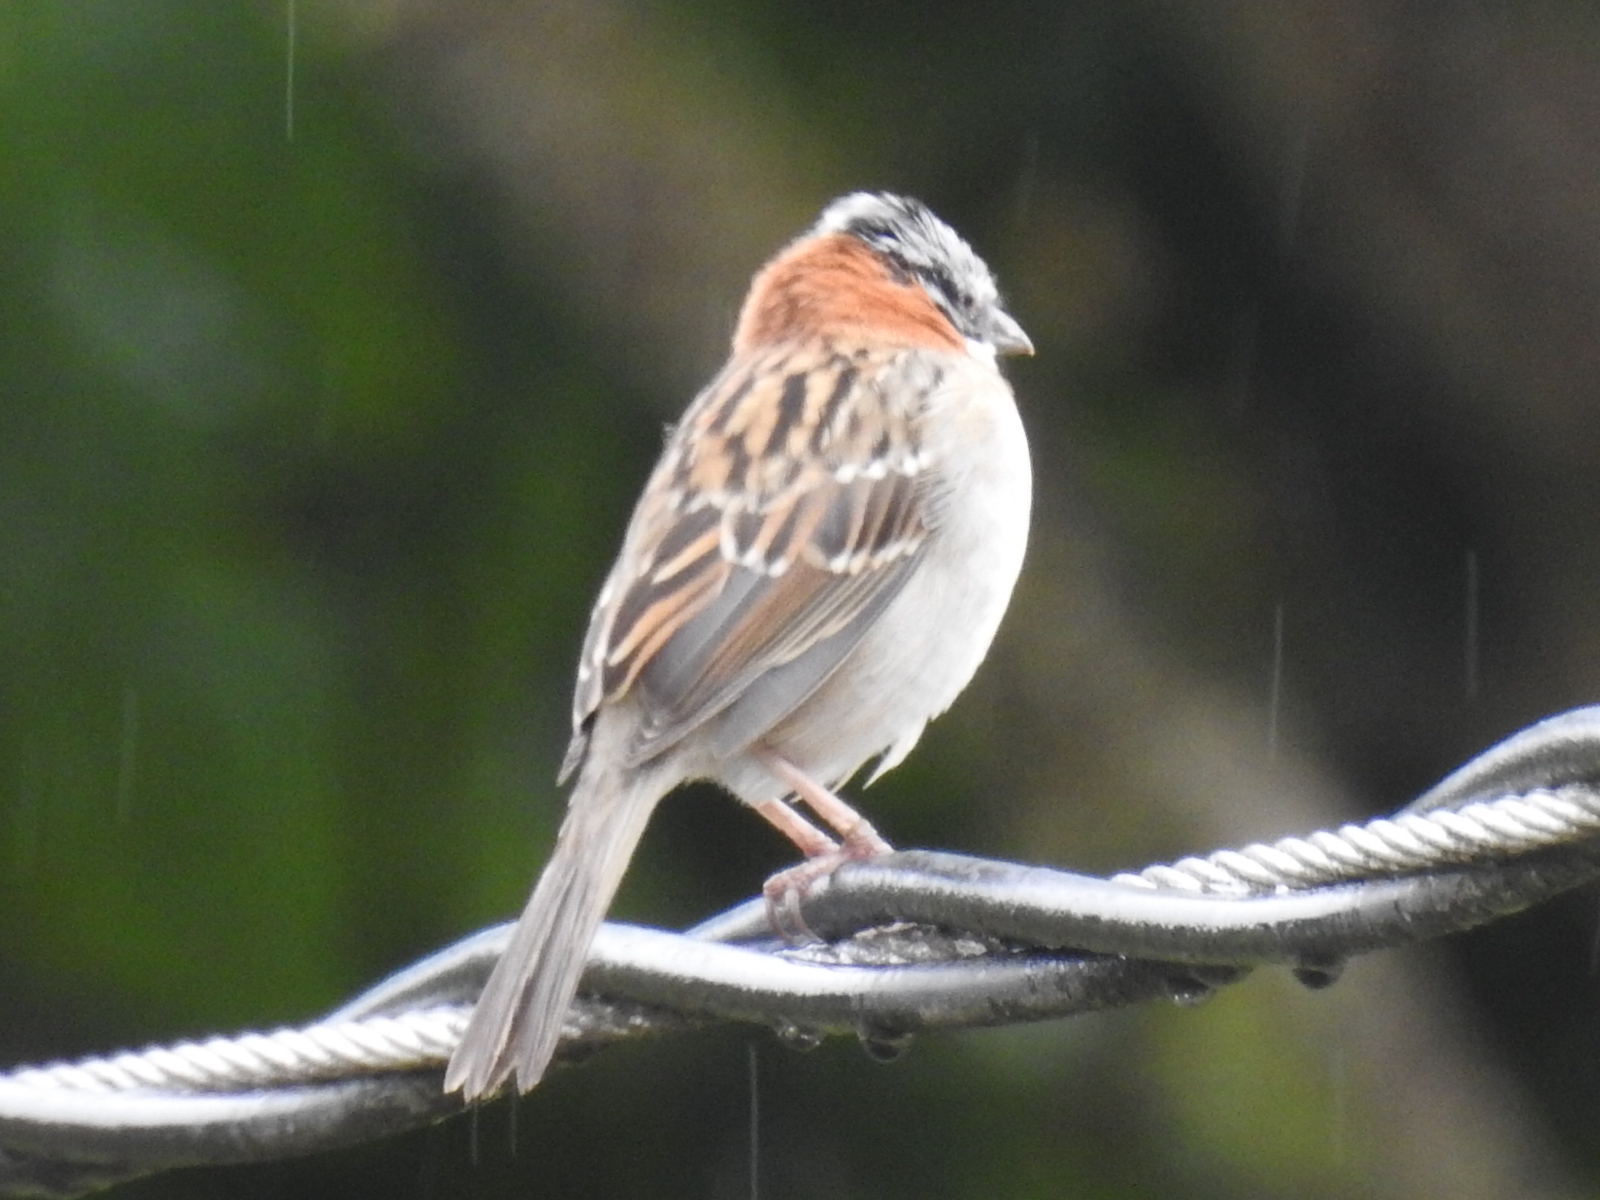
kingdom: Animalia
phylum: Chordata
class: Aves
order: Passeriformes
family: Passerellidae
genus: Zonotrichia
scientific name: Zonotrichia capensis
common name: Rufous-collared sparrow
